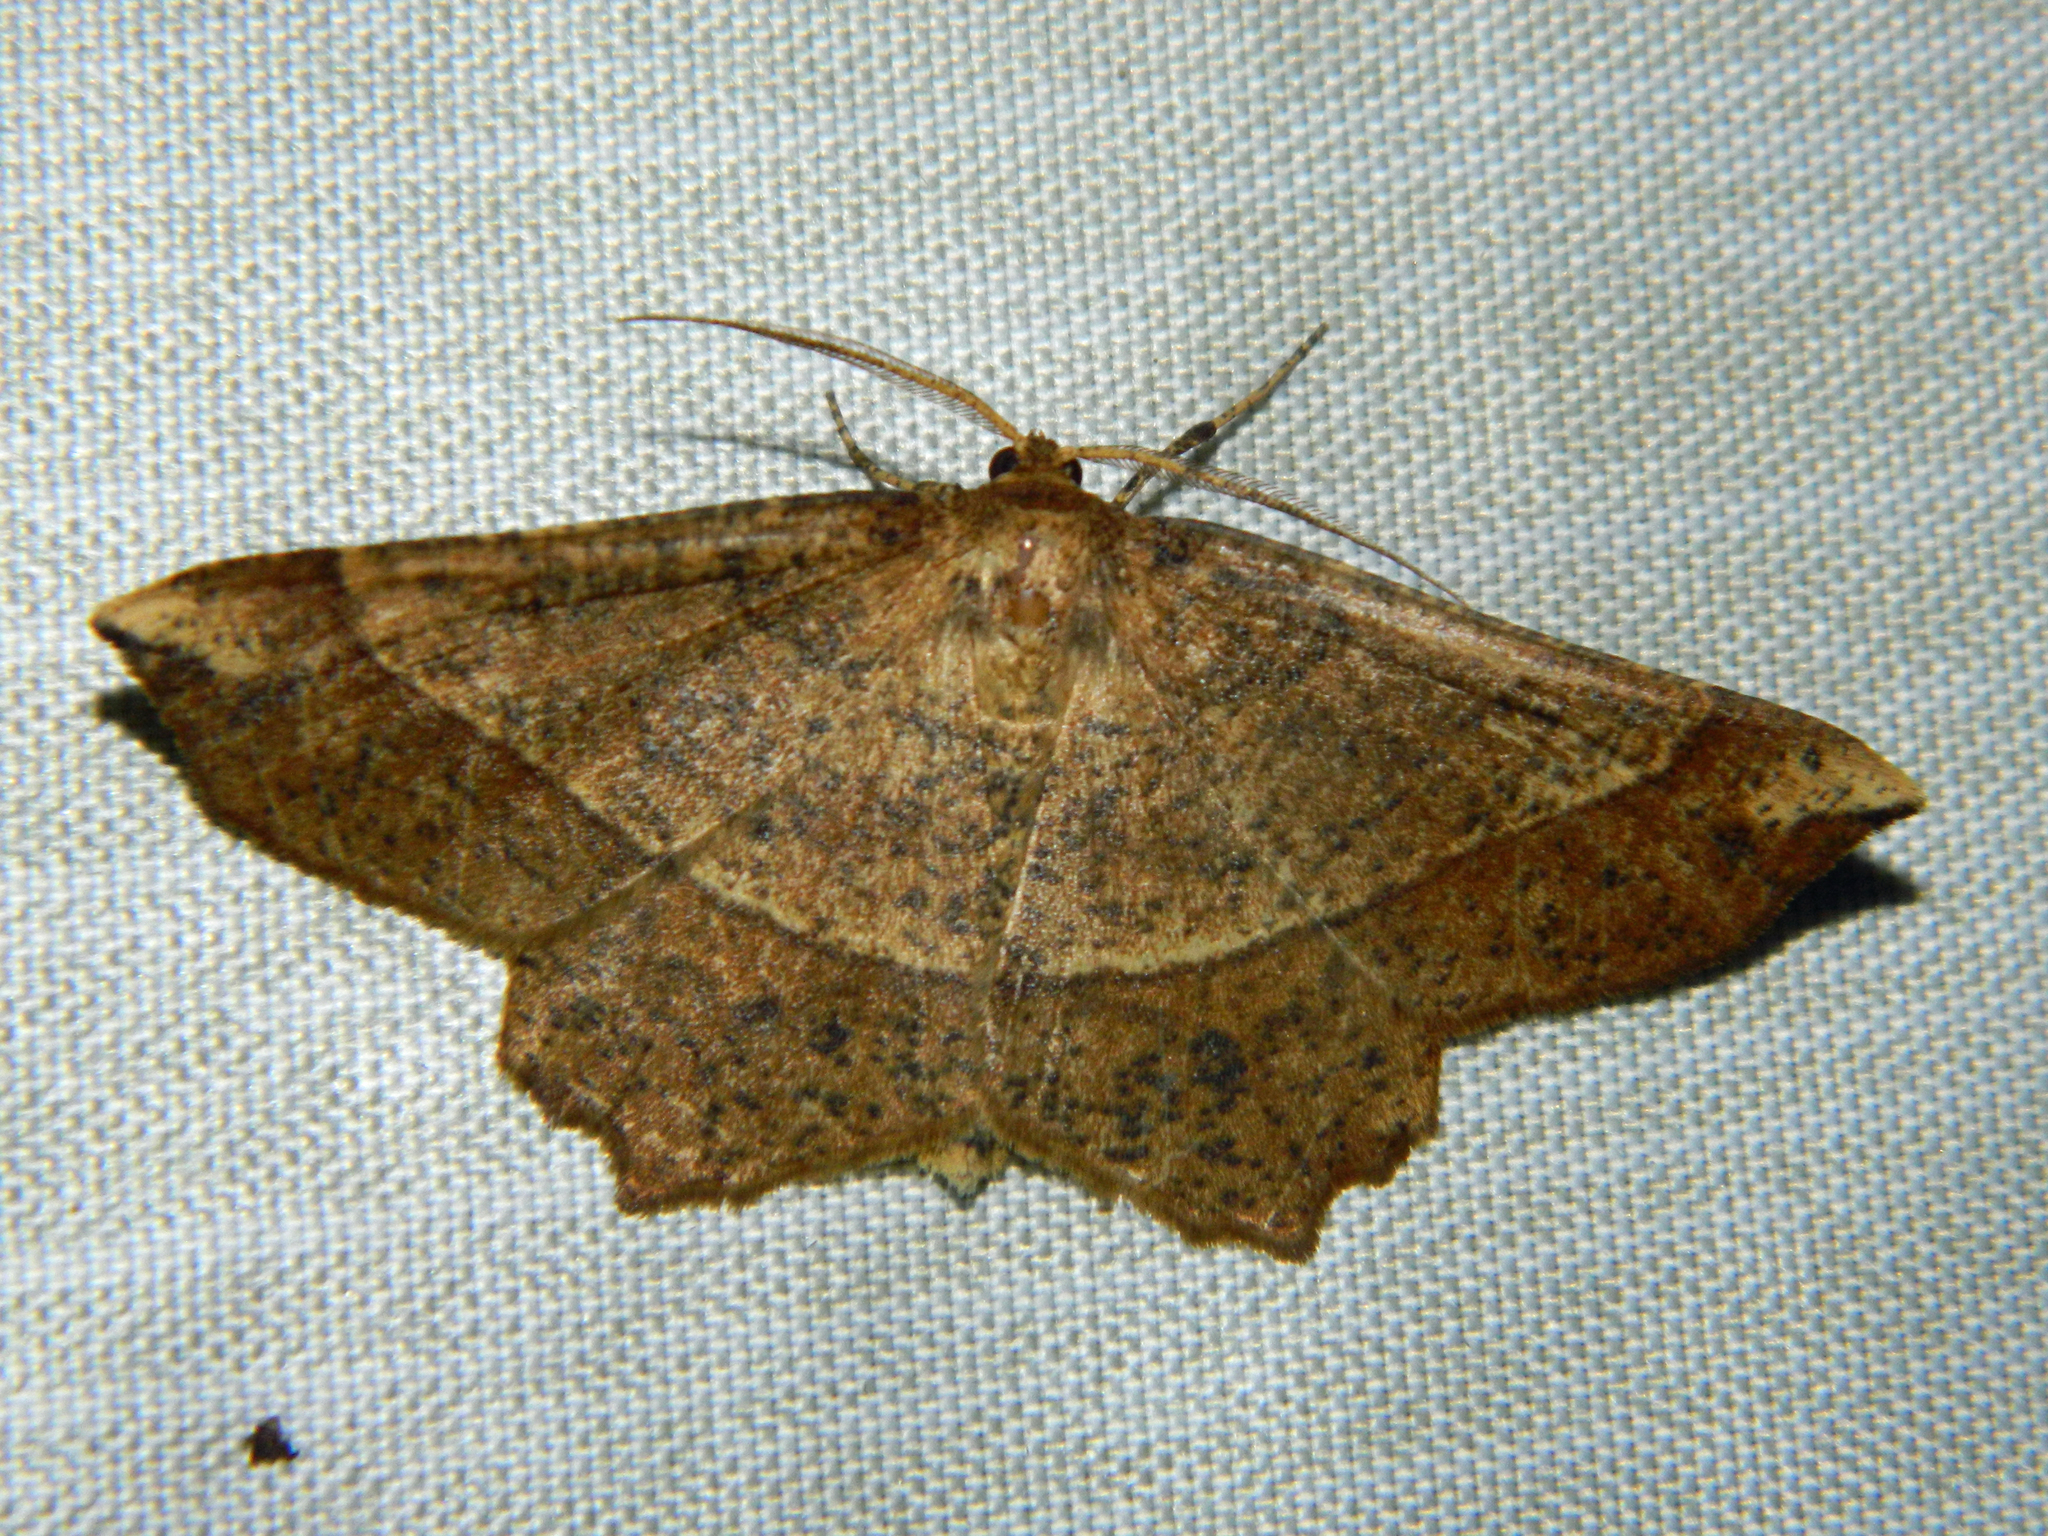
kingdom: Animalia
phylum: Arthropoda
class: Insecta
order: Lepidoptera
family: Geometridae
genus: Euchlaena
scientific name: Euchlaena tigrinaria
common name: Mottled euchlaena moth
